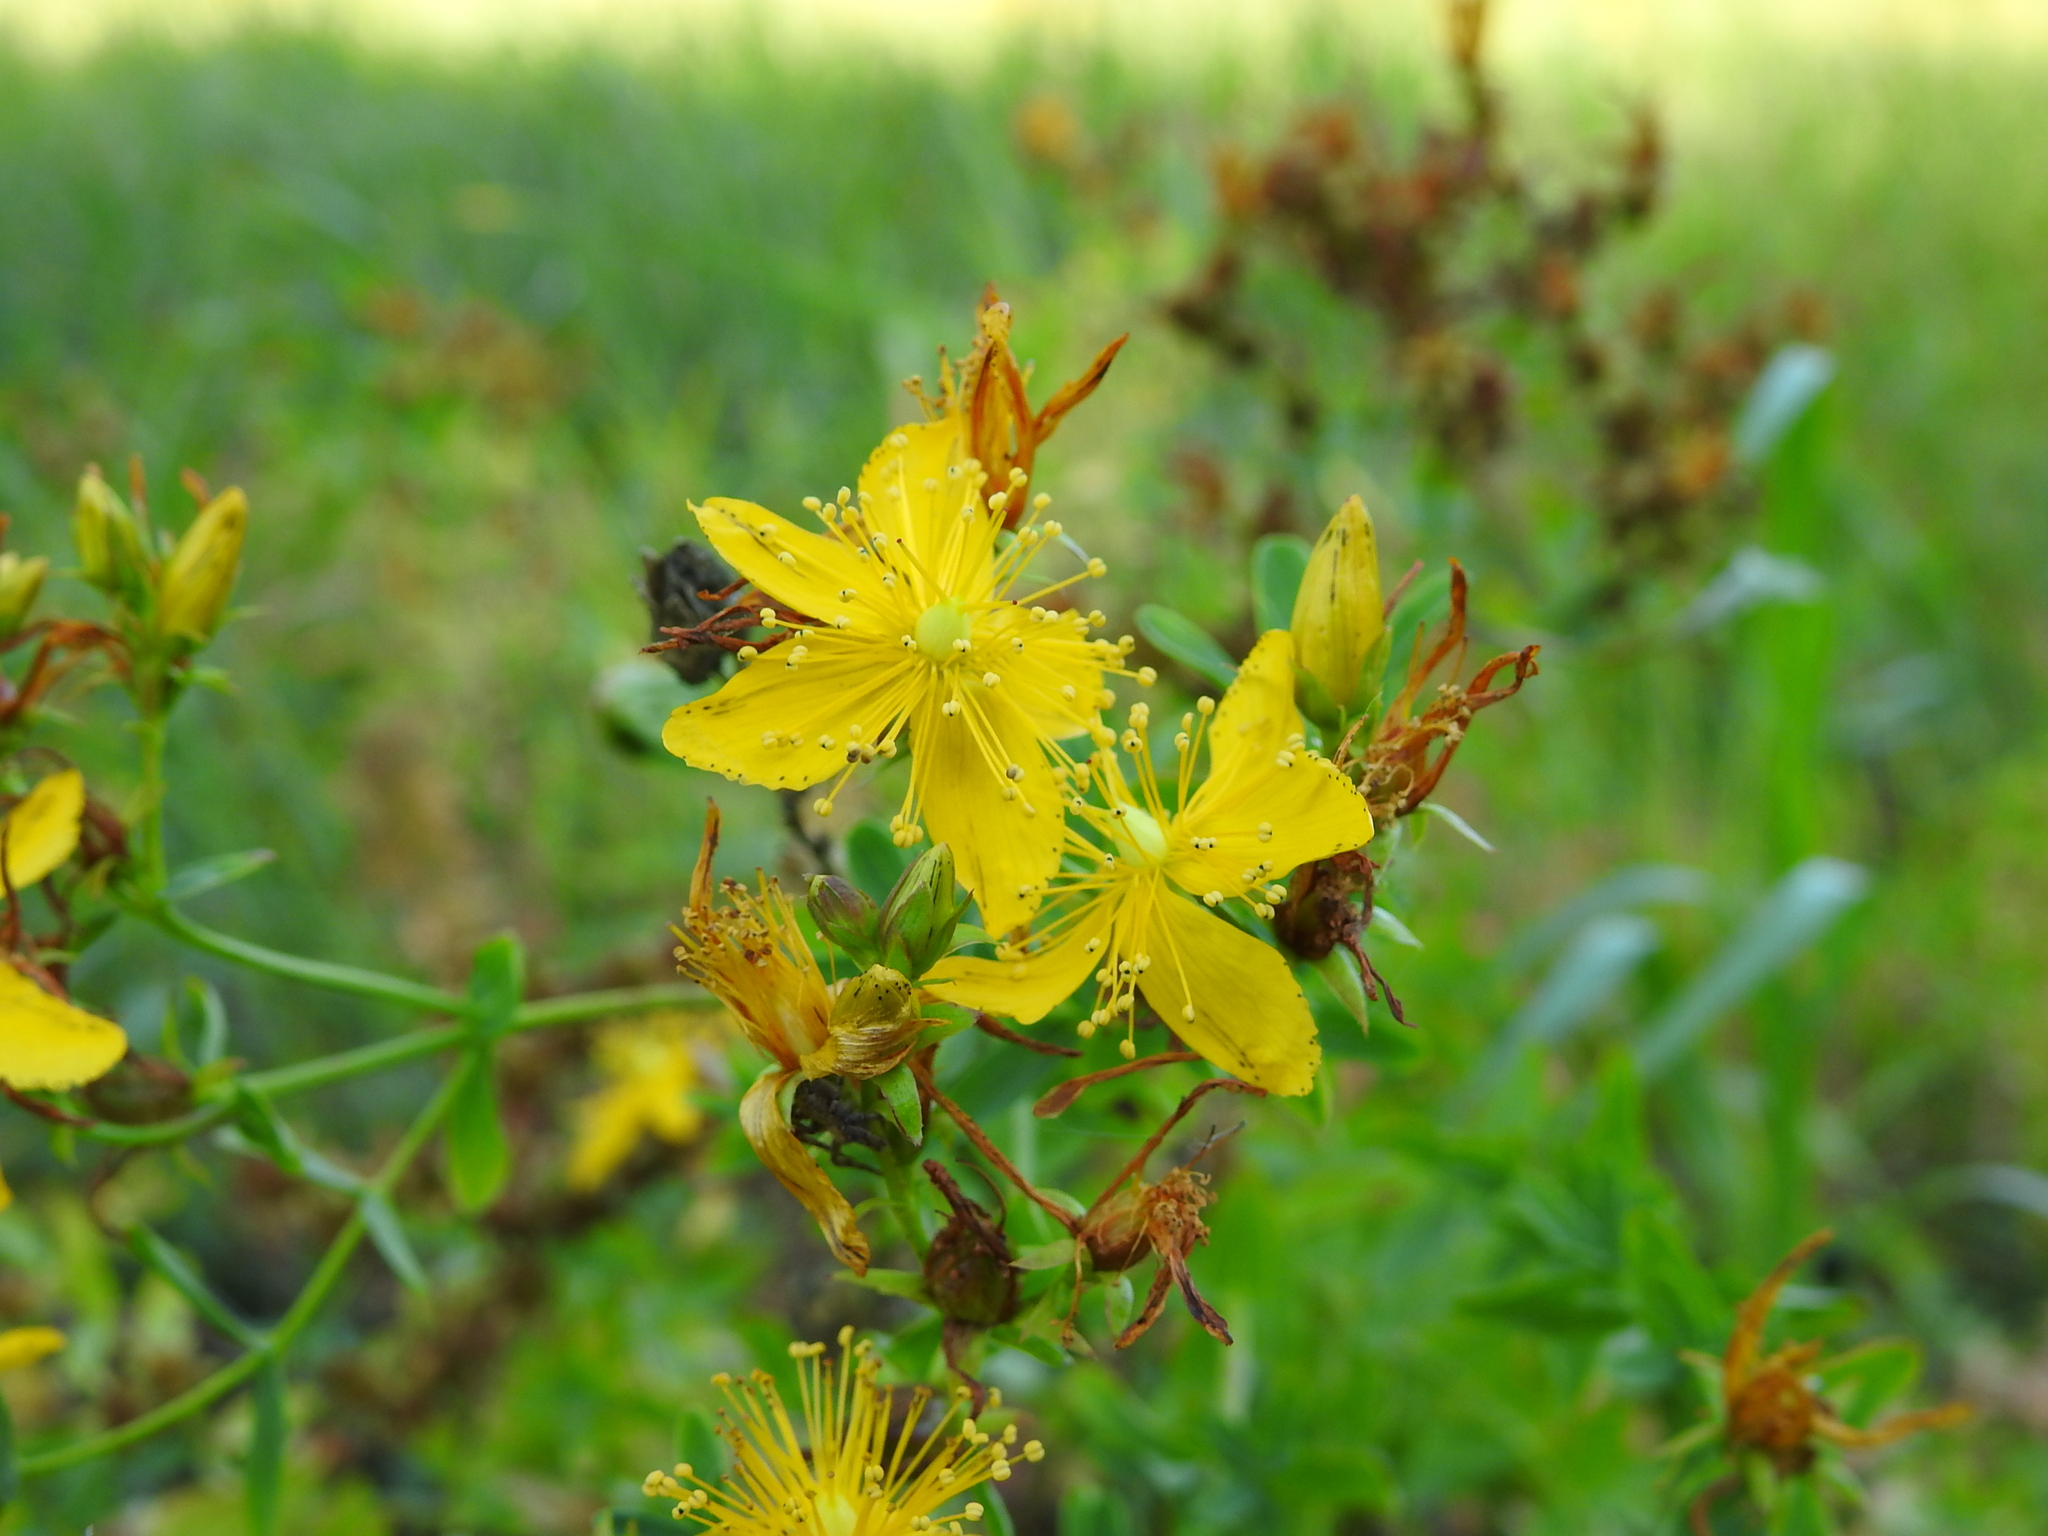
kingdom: Plantae
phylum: Tracheophyta
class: Magnoliopsida
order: Malpighiales
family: Hypericaceae
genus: Hypericum
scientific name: Hypericum perforatum
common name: Common st. johnswort
